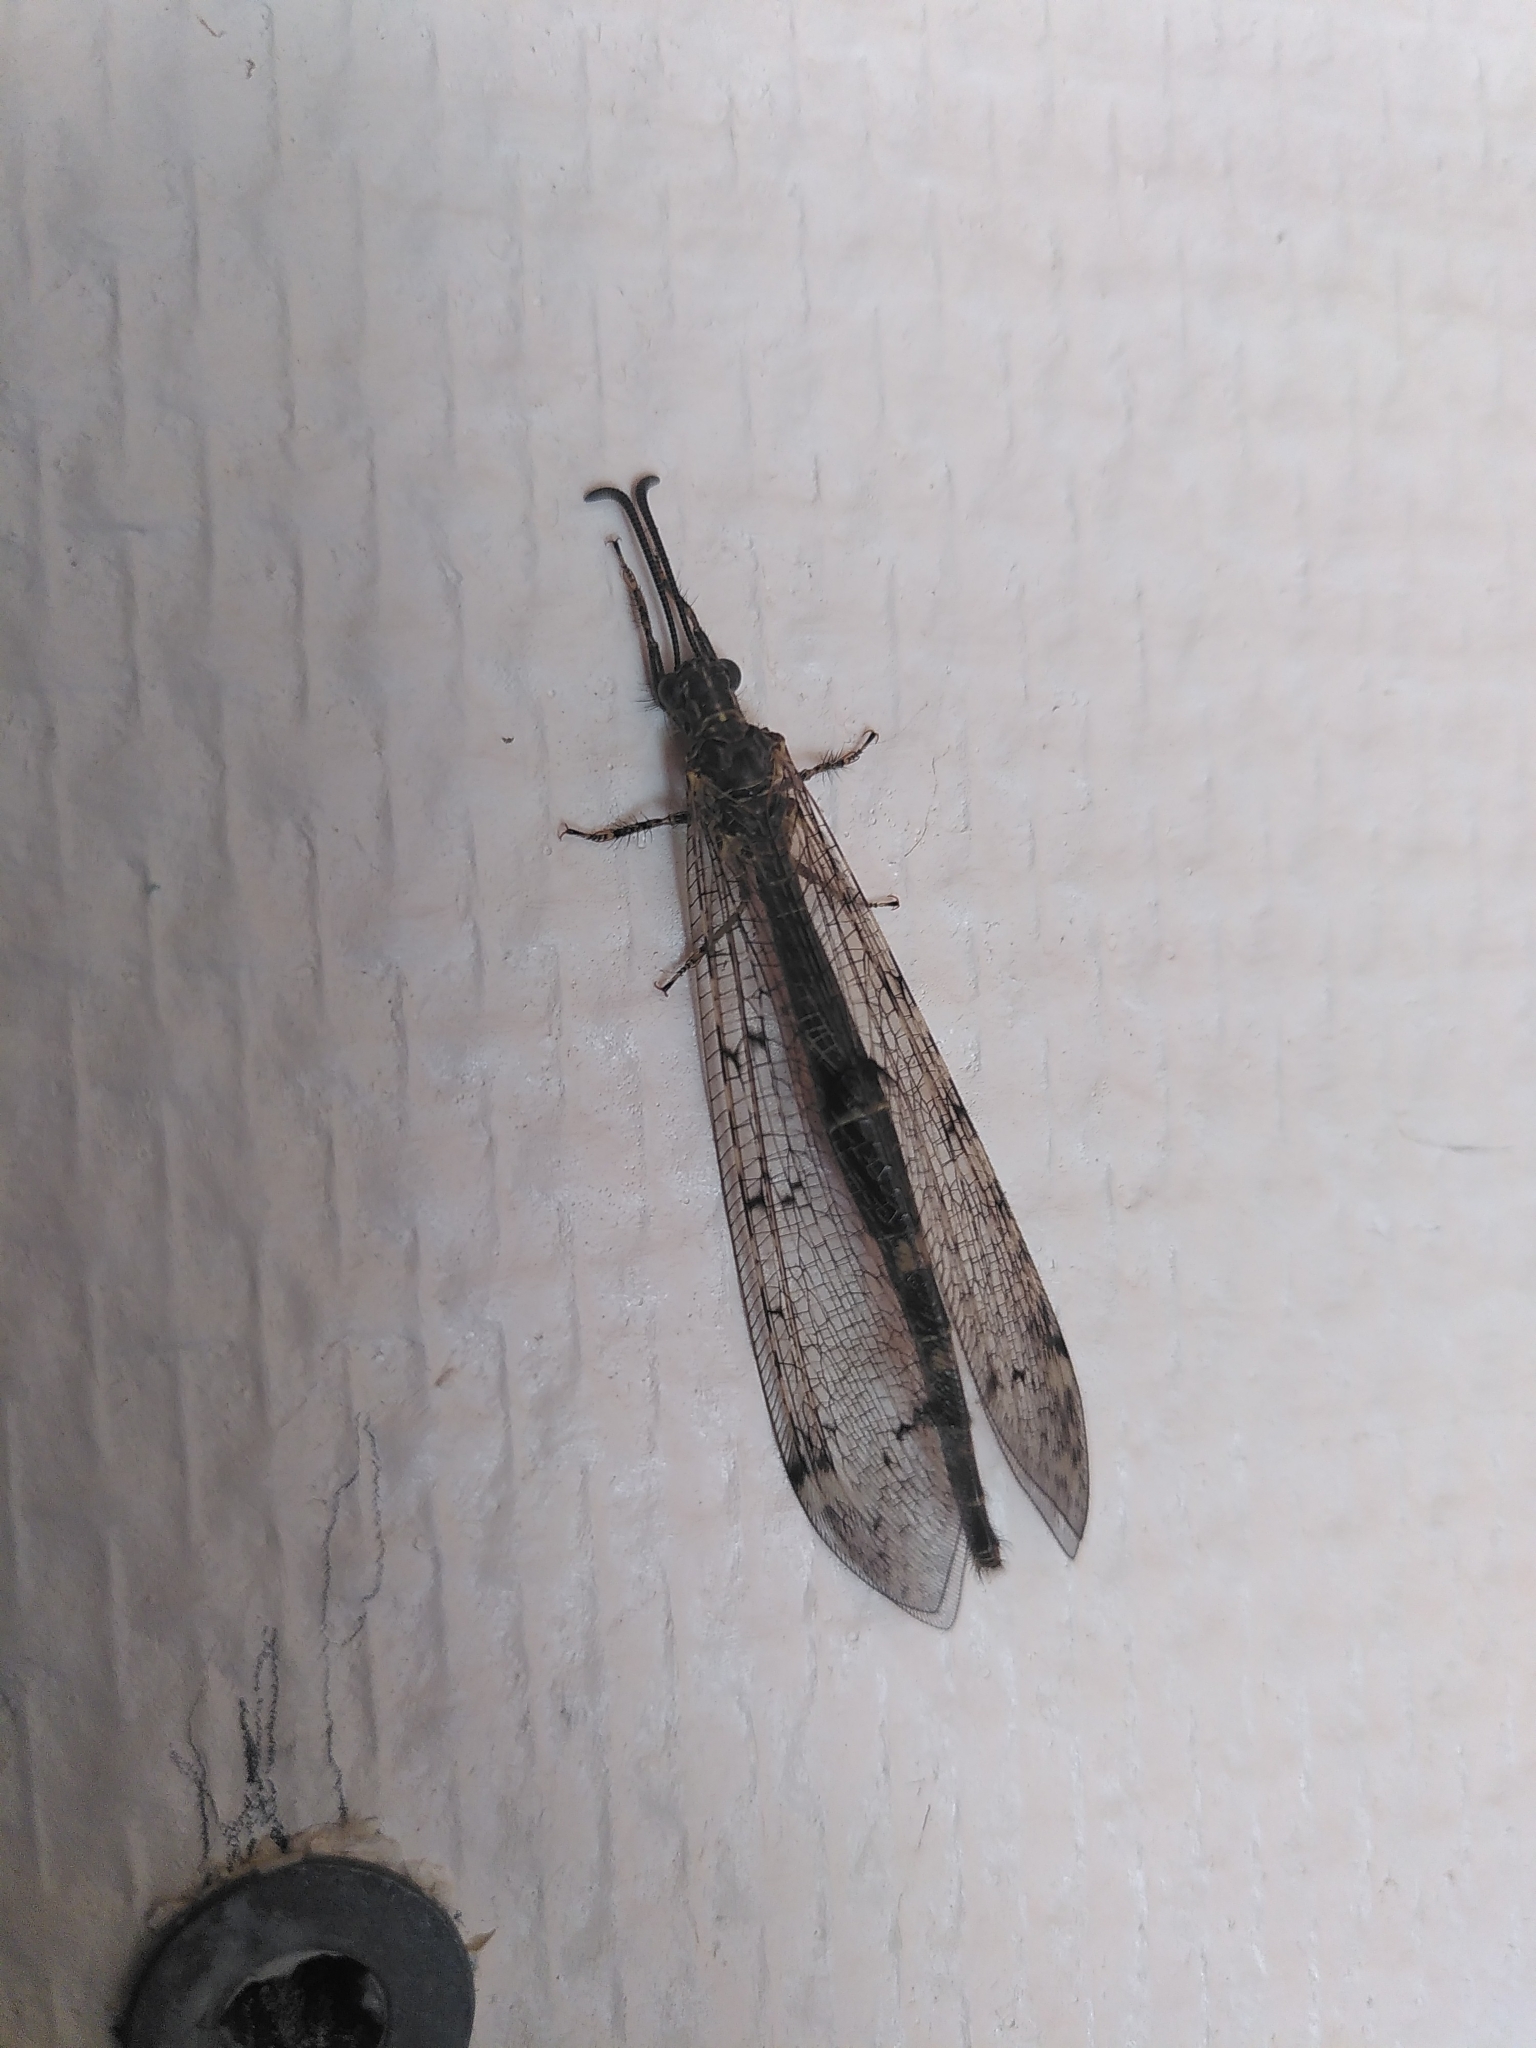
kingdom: Animalia
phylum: Arthropoda
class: Insecta
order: Neuroptera
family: Myrmeleontidae
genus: Distoleon
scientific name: Distoleon tetragrammicus
